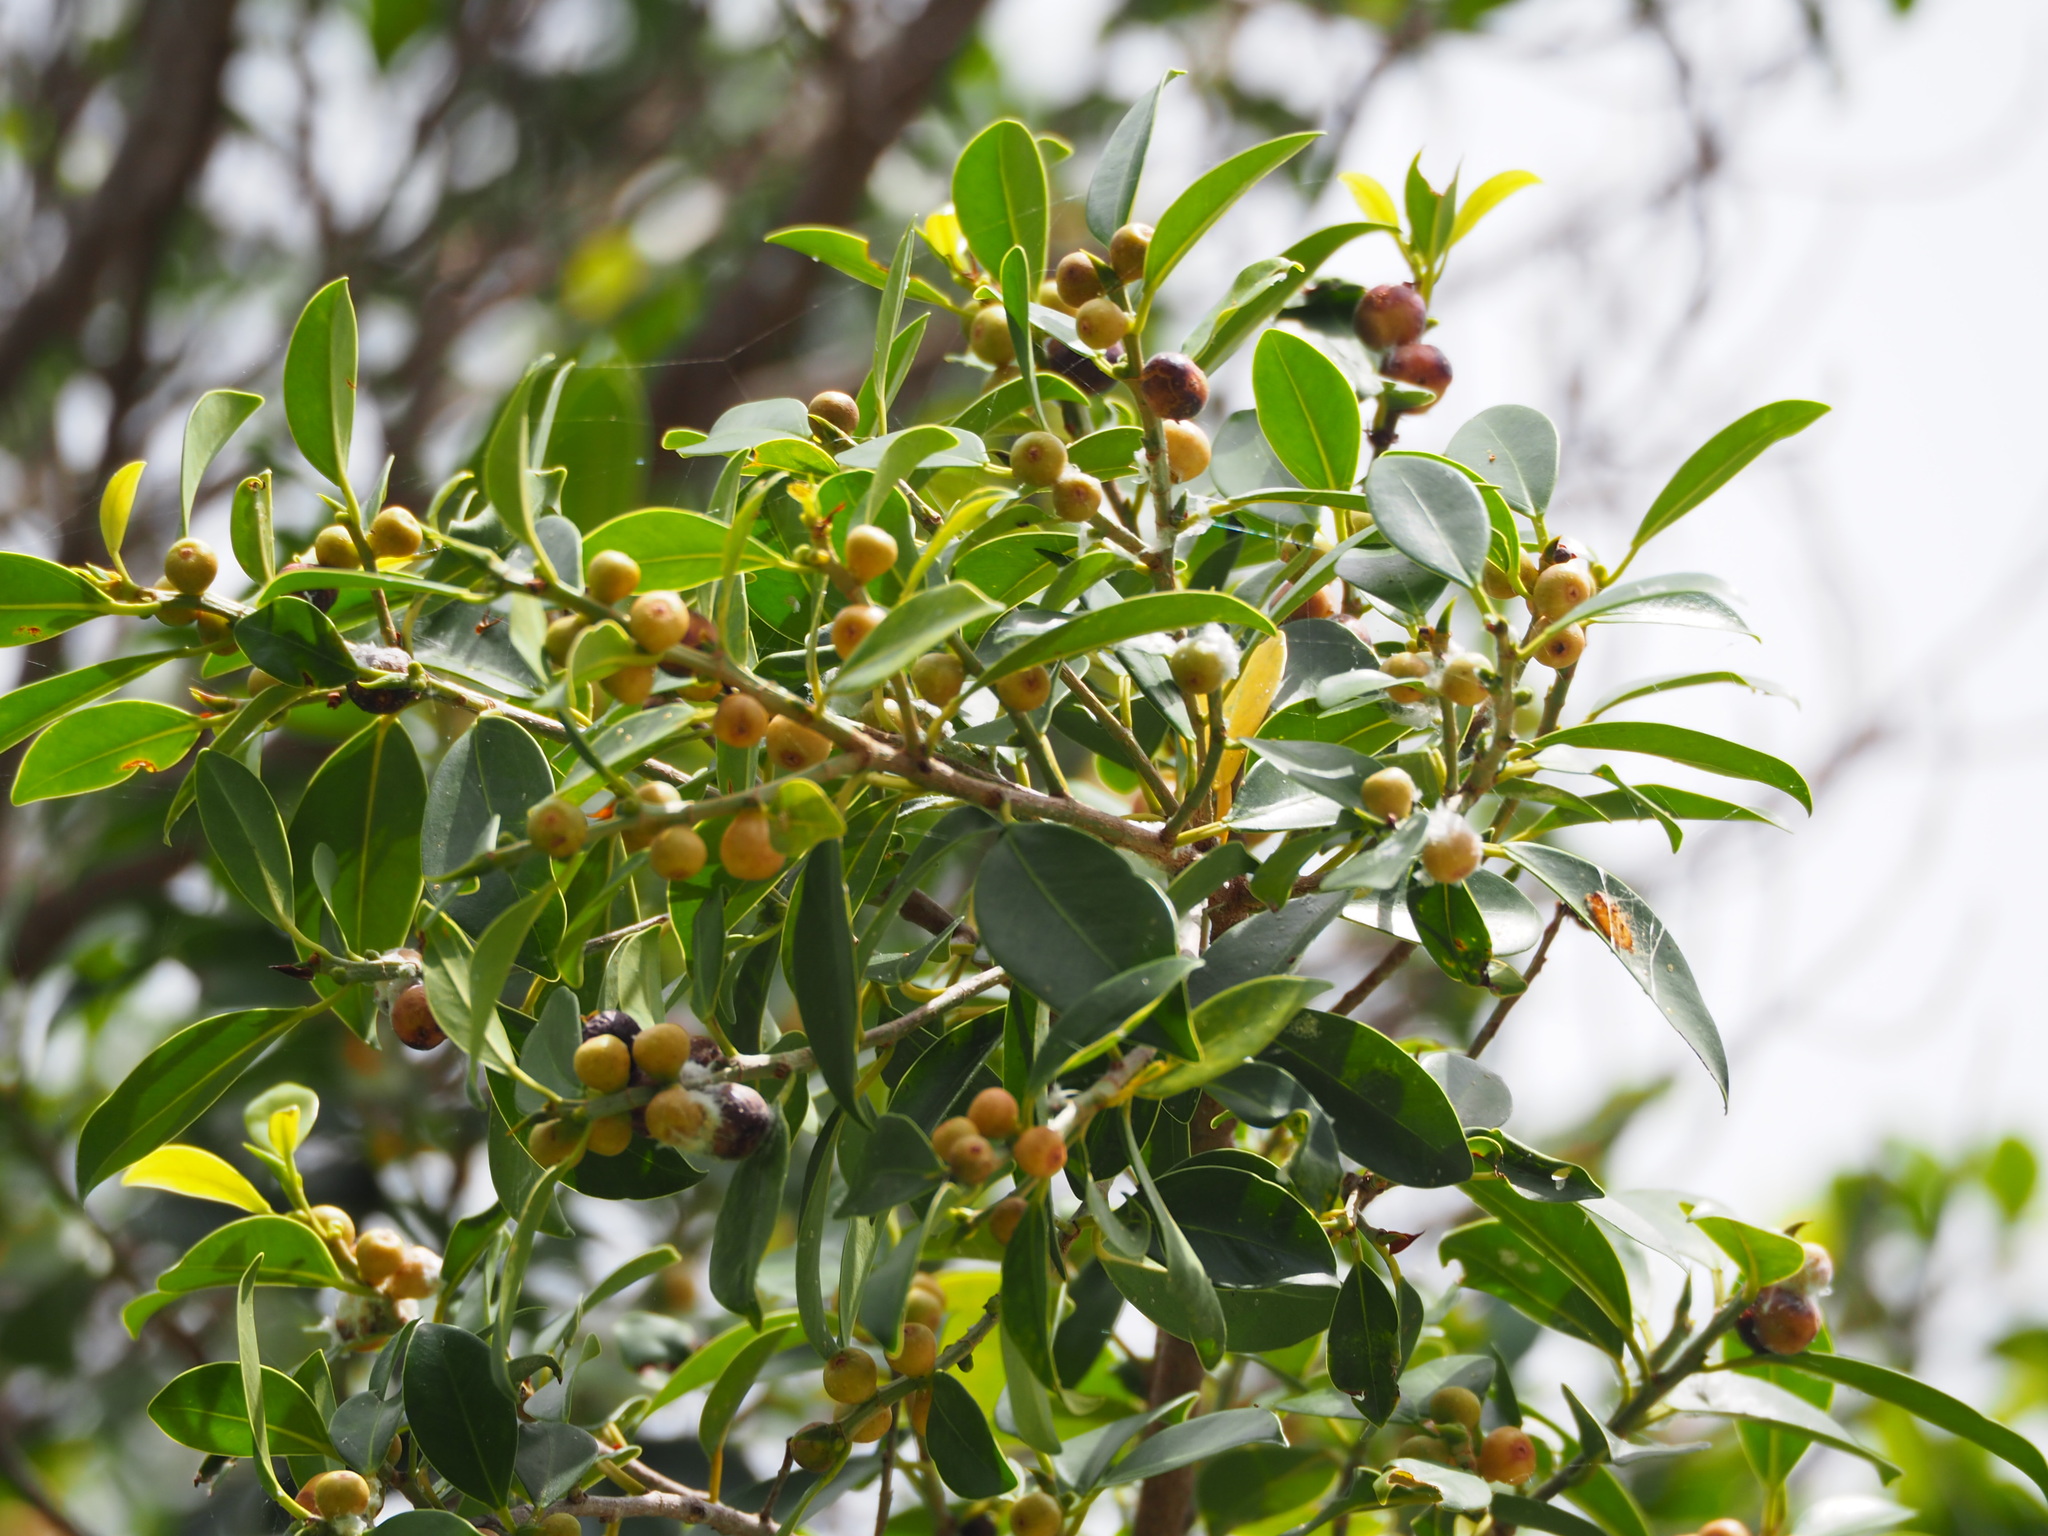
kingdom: Plantae
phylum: Tracheophyta
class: Magnoliopsida
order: Rosales
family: Moraceae
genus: Ficus
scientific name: Ficus microcarpa
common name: Chinese banyan
